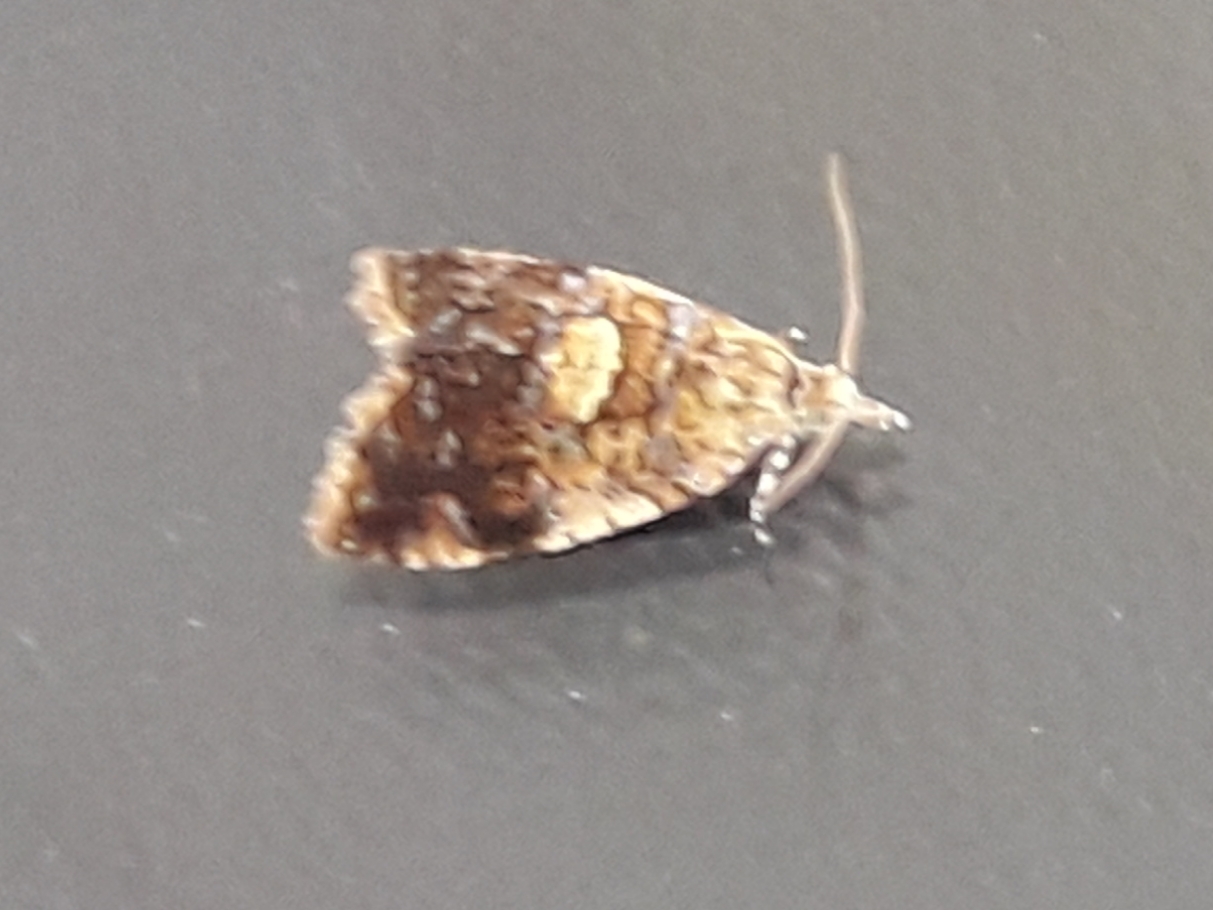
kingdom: Animalia
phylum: Arthropoda
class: Insecta
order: Lepidoptera
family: Tortricidae
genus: Pseudargyrotoza
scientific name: Pseudargyrotoza conwagana
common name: Yellow-spot twist
